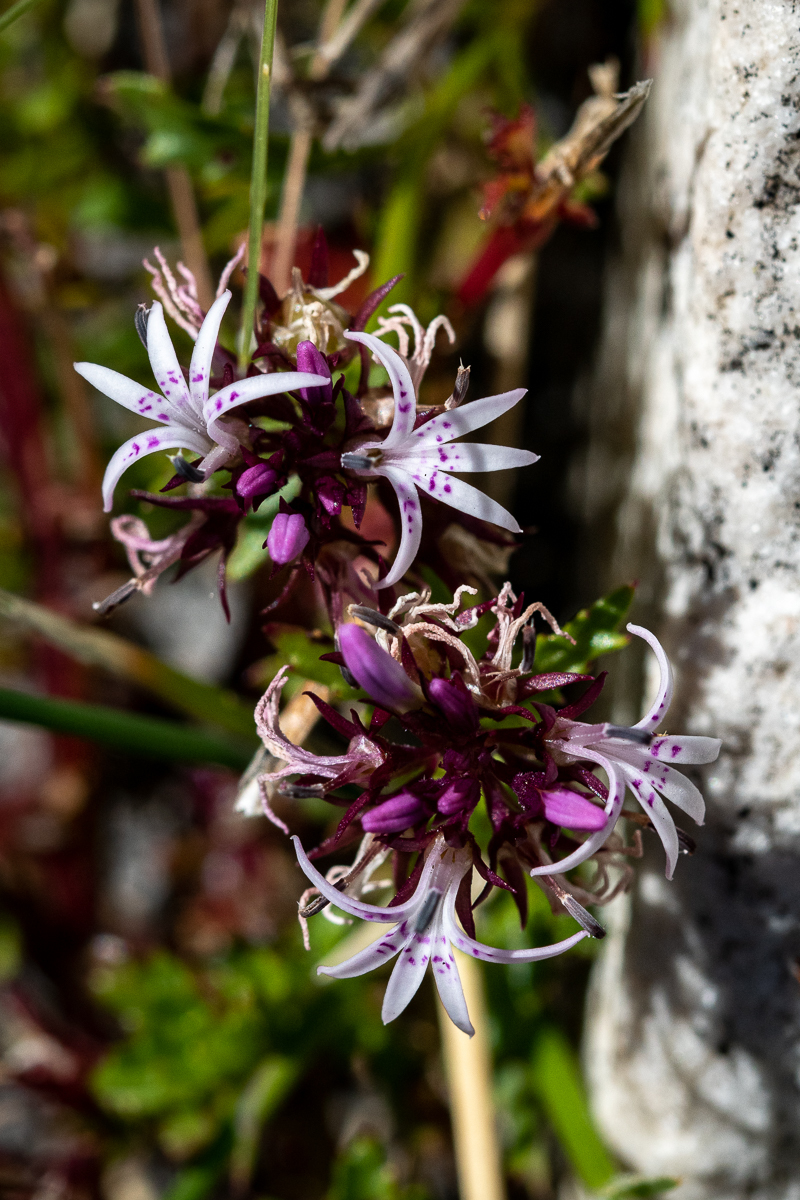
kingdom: Plantae
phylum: Tracheophyta
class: Magnoliopsida
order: Asterales
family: Campanulaceae
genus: Lobelia
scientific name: Lobelia jasionoides
